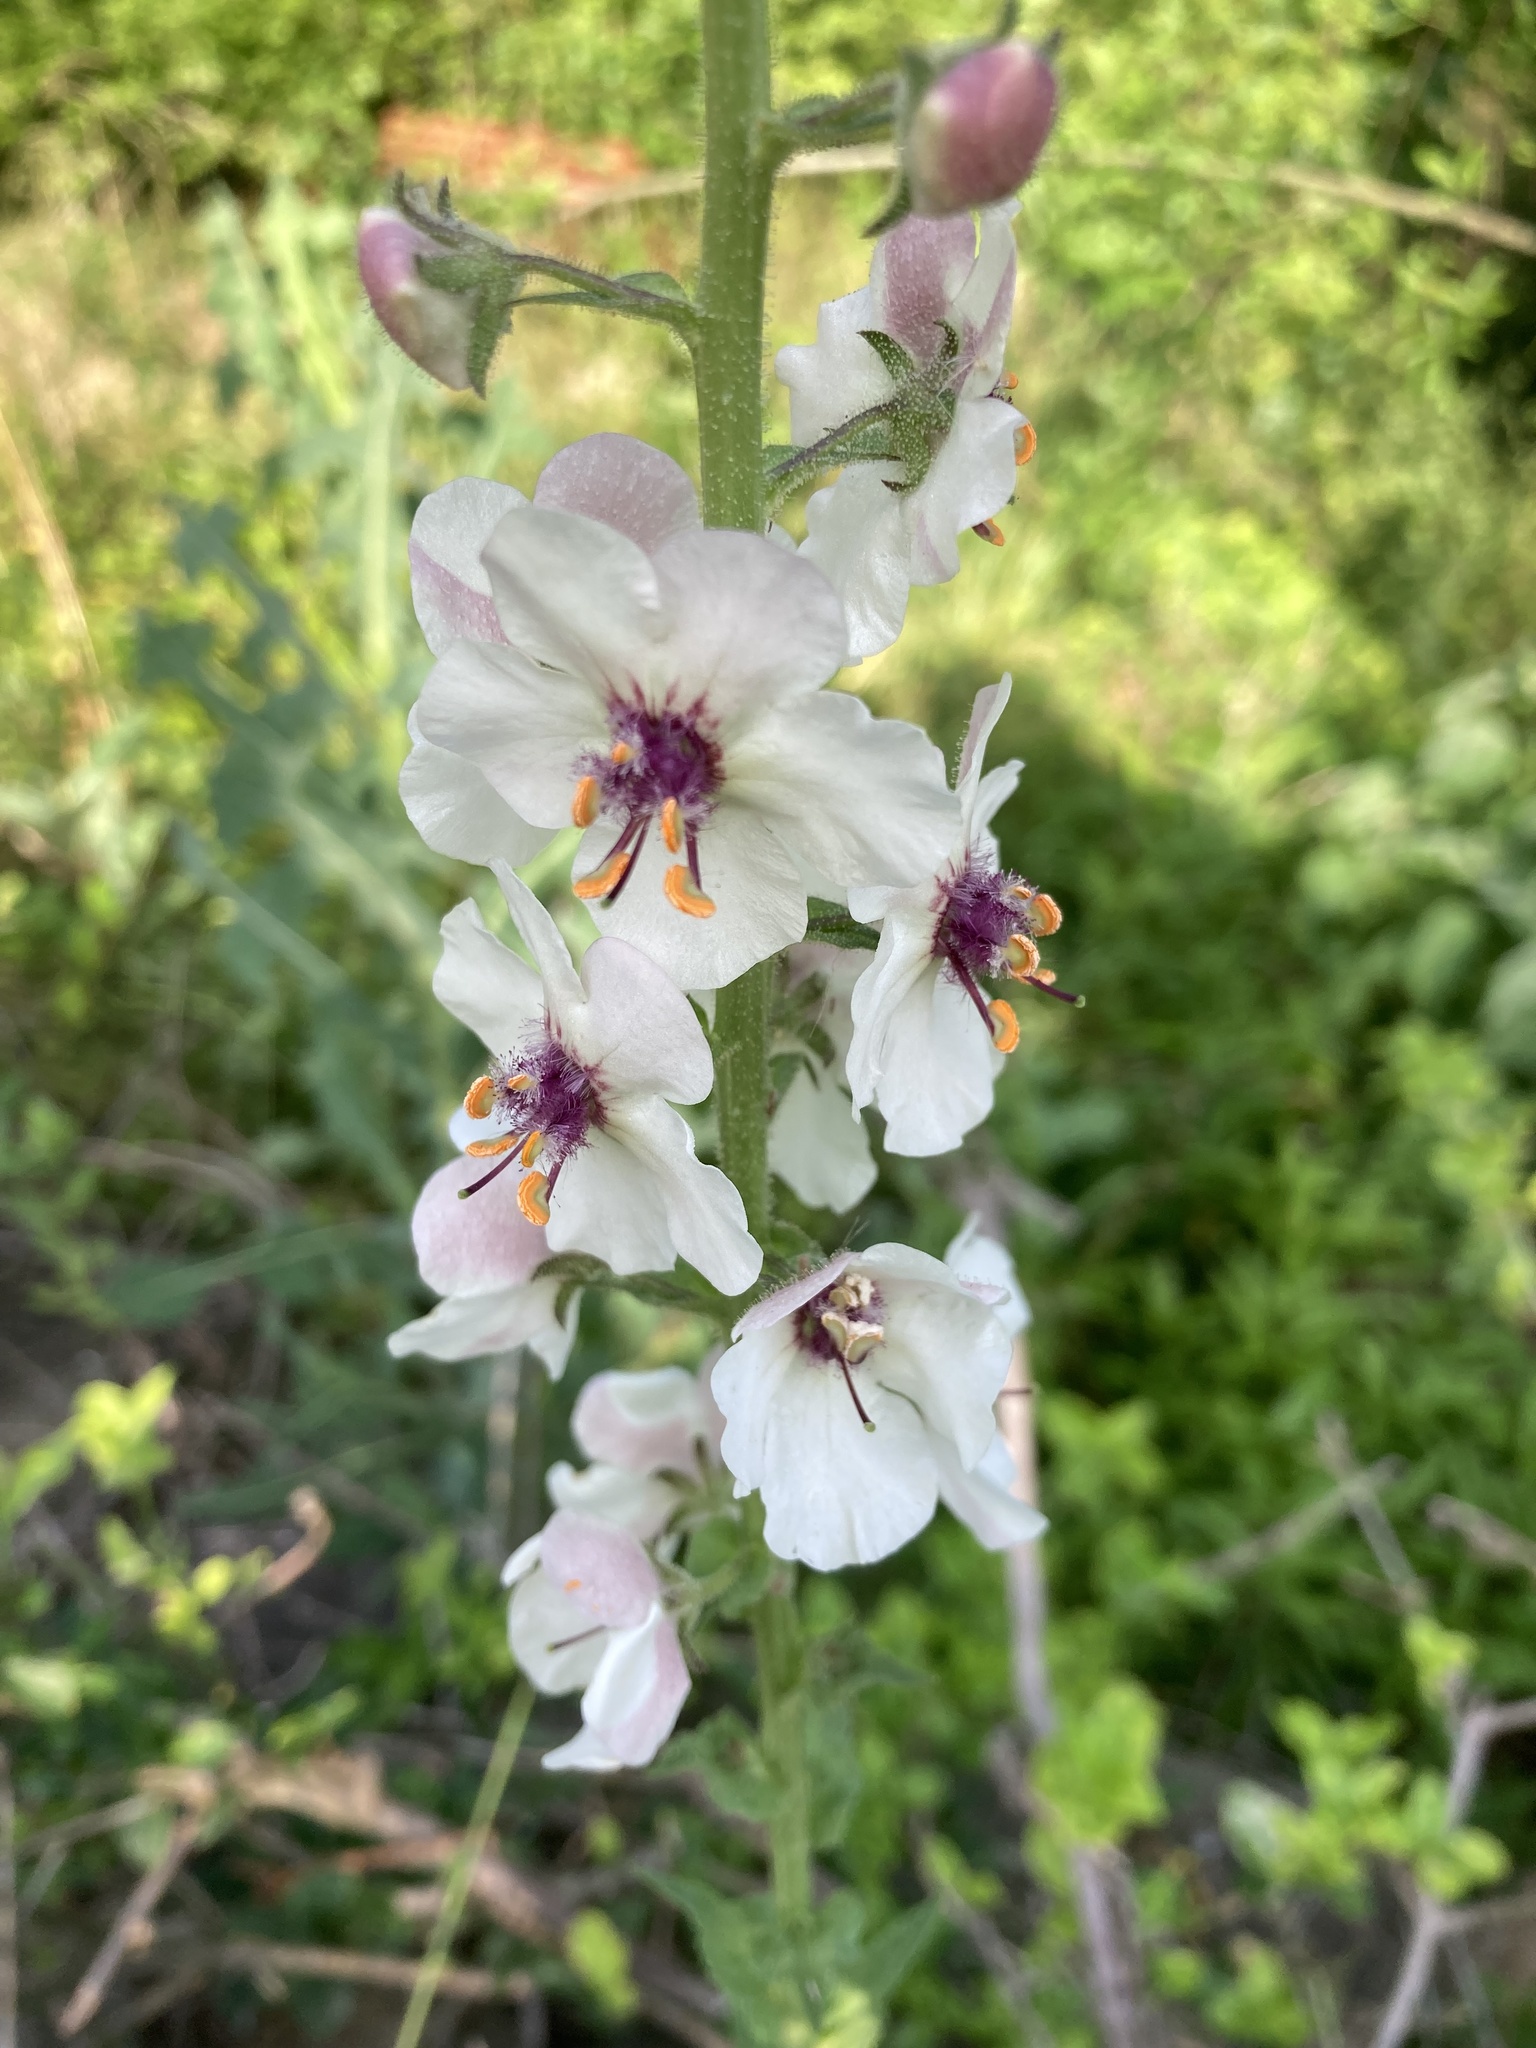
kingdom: Plantae
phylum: Tracheophyta
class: Magnoliopsida
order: Lamiales
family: Scrophulariaceae
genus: Verbascum
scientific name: Verbascum blattaria
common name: Moth mullein
